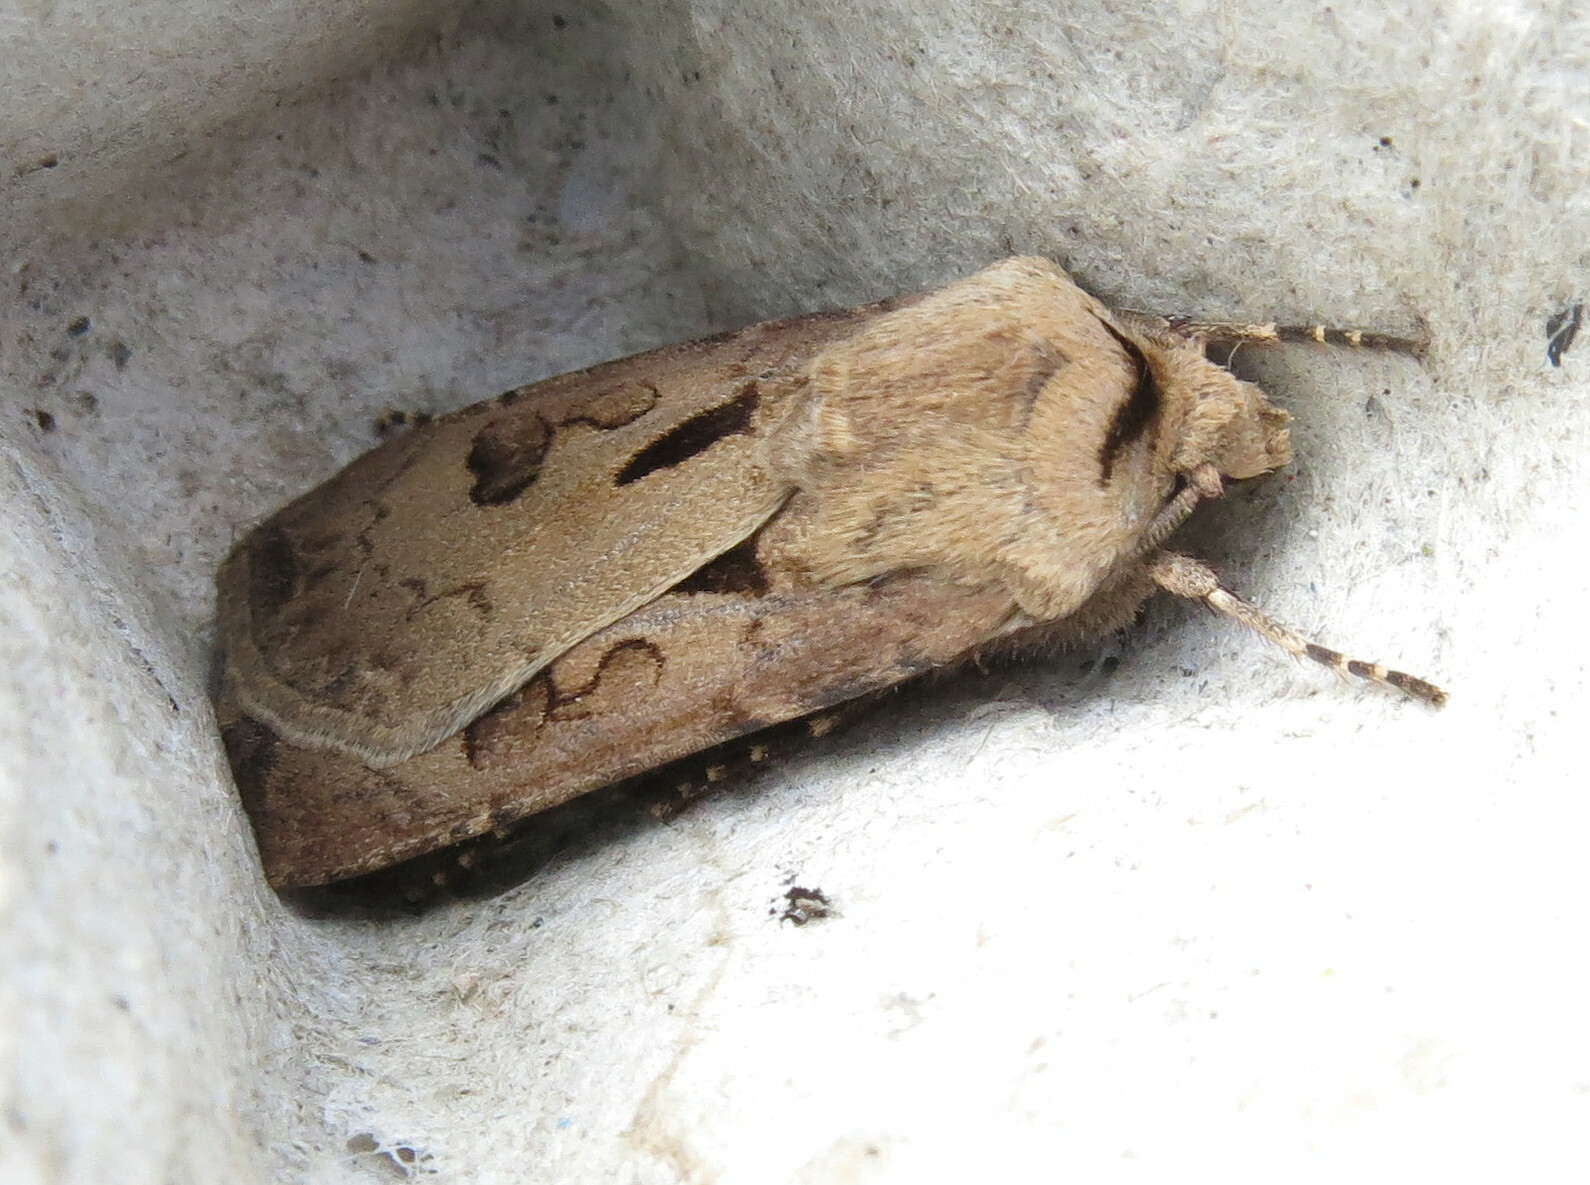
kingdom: Animalia
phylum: Arthropoda
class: Insecta
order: Lepidoptera
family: Noctuidae
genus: Agrotis
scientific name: Agrotis exclamationis
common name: Heart and dart
